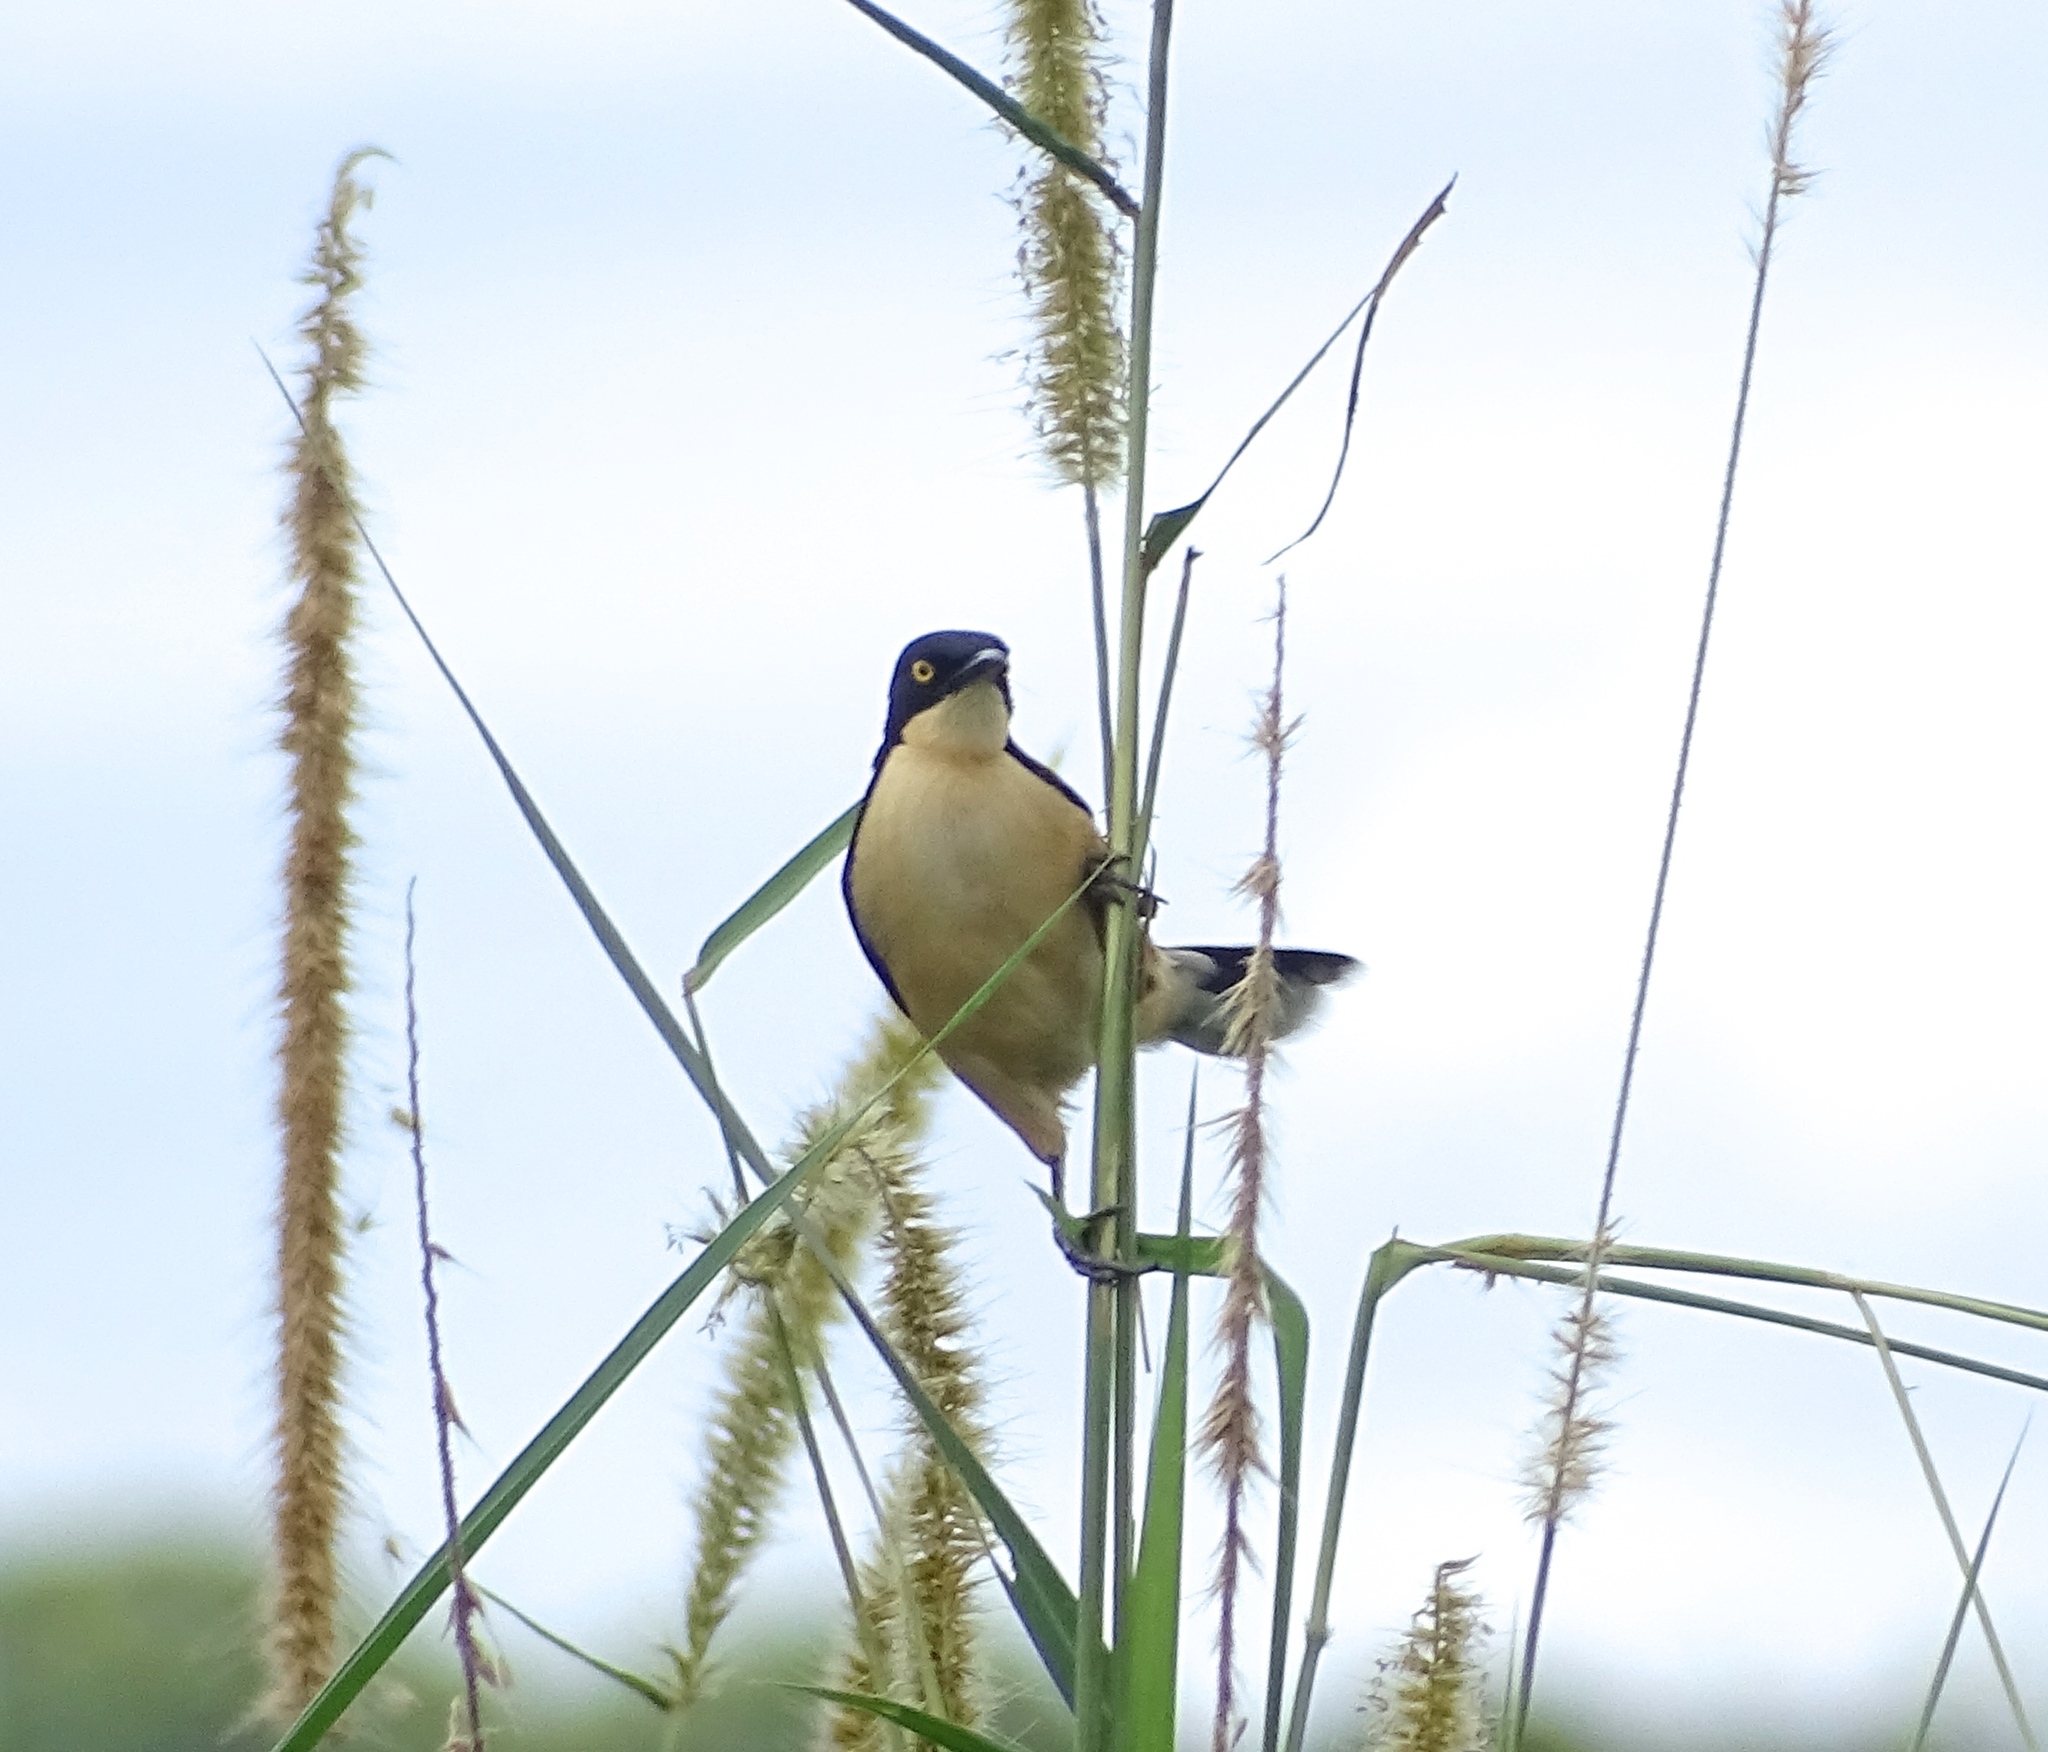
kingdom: Animalia
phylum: Chordata
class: Aves
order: Passeriformes
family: Donacobiidae
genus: Donacobius
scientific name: Donacobius atricapilla
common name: Black-capped donacobius
